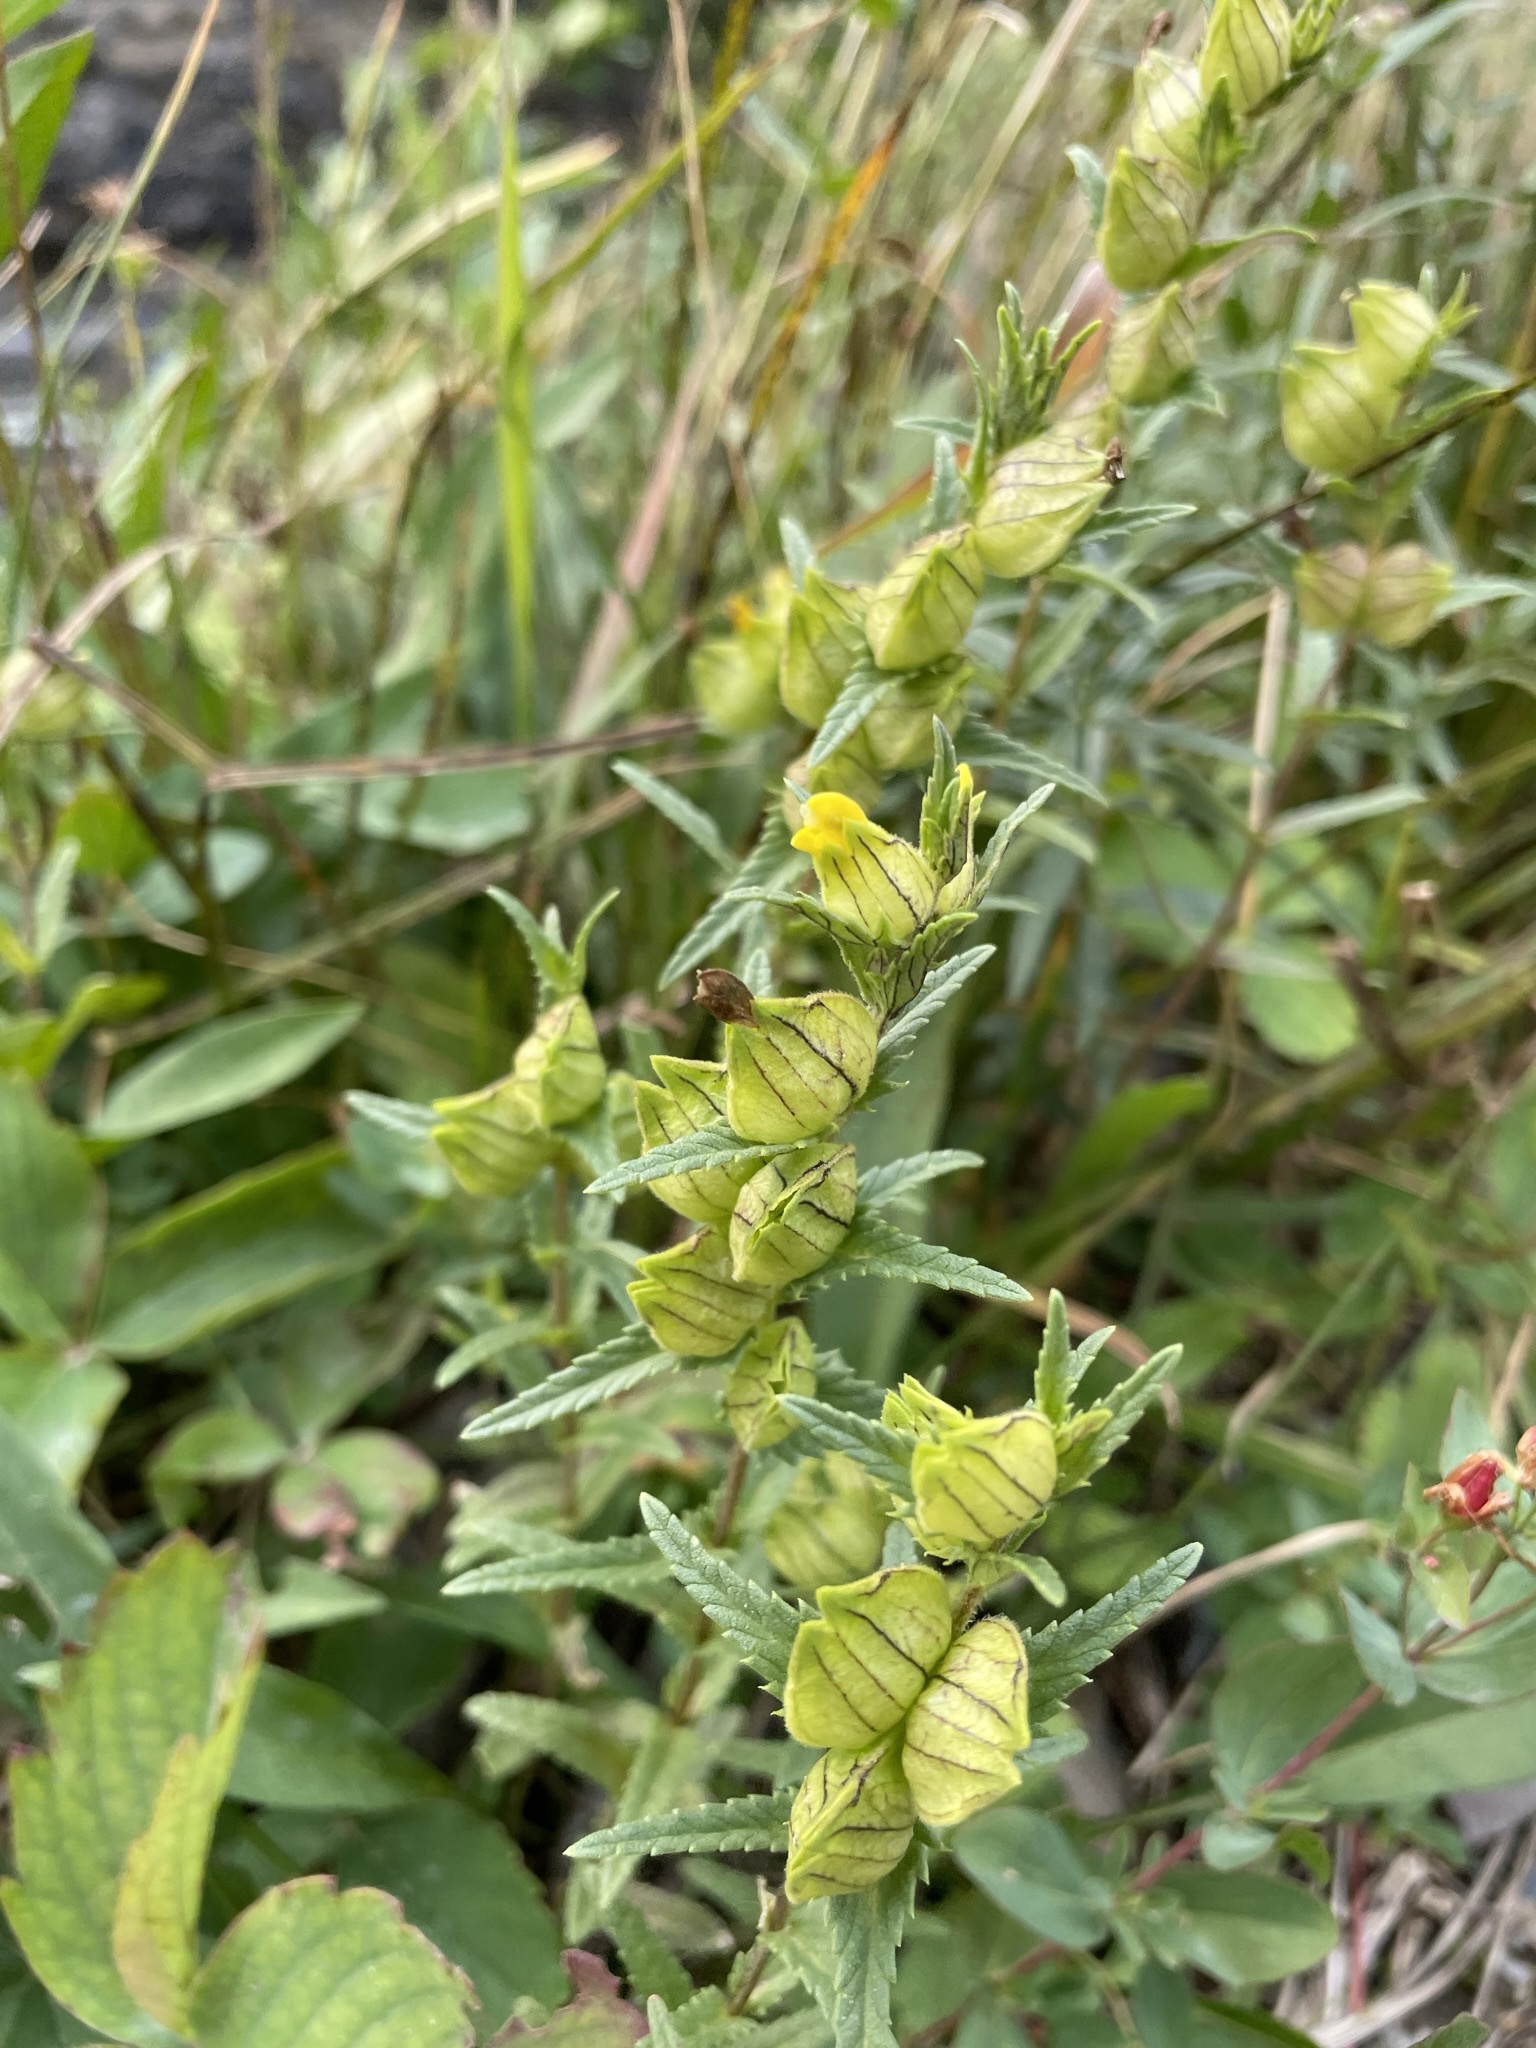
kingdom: Plantae
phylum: Tracheophyta
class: Magnoliopsida
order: Lamiales
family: Orobanchaceae
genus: Rhinanthus
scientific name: Rhinanthus groenlandicus
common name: Little yellow rattle
